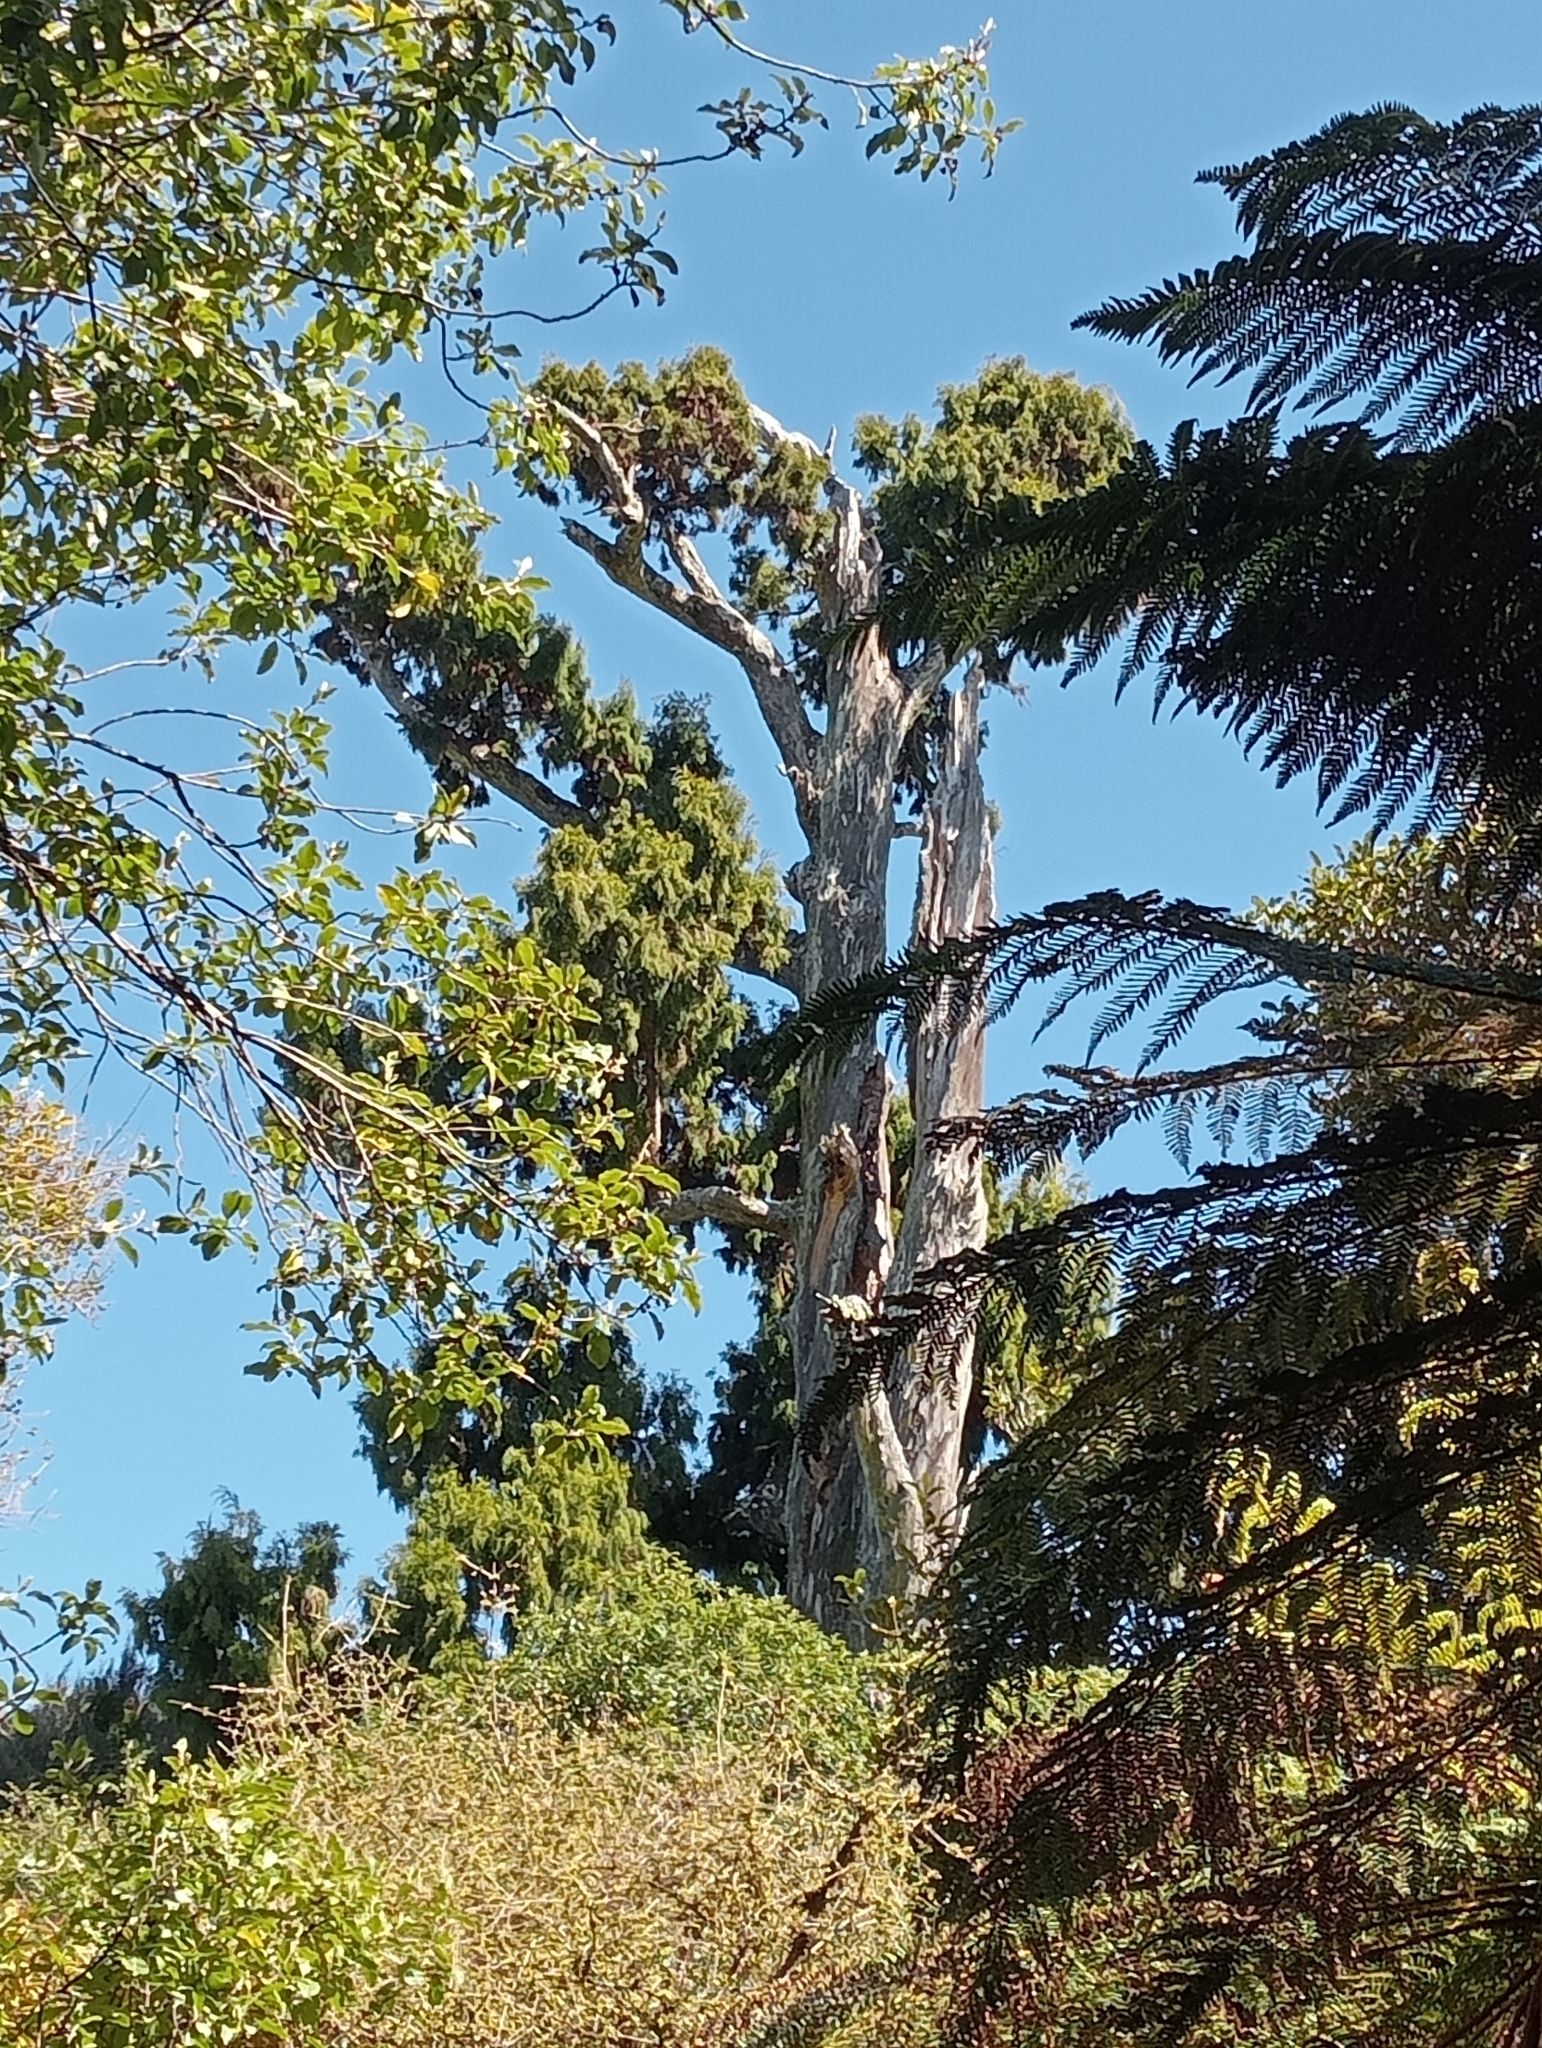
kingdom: Plantae
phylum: Tracheophyta
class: Pinopsida
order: Pinales
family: Podocarpaceae
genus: Dacrydium
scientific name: Dacrydium cupressinum
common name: Red pine
